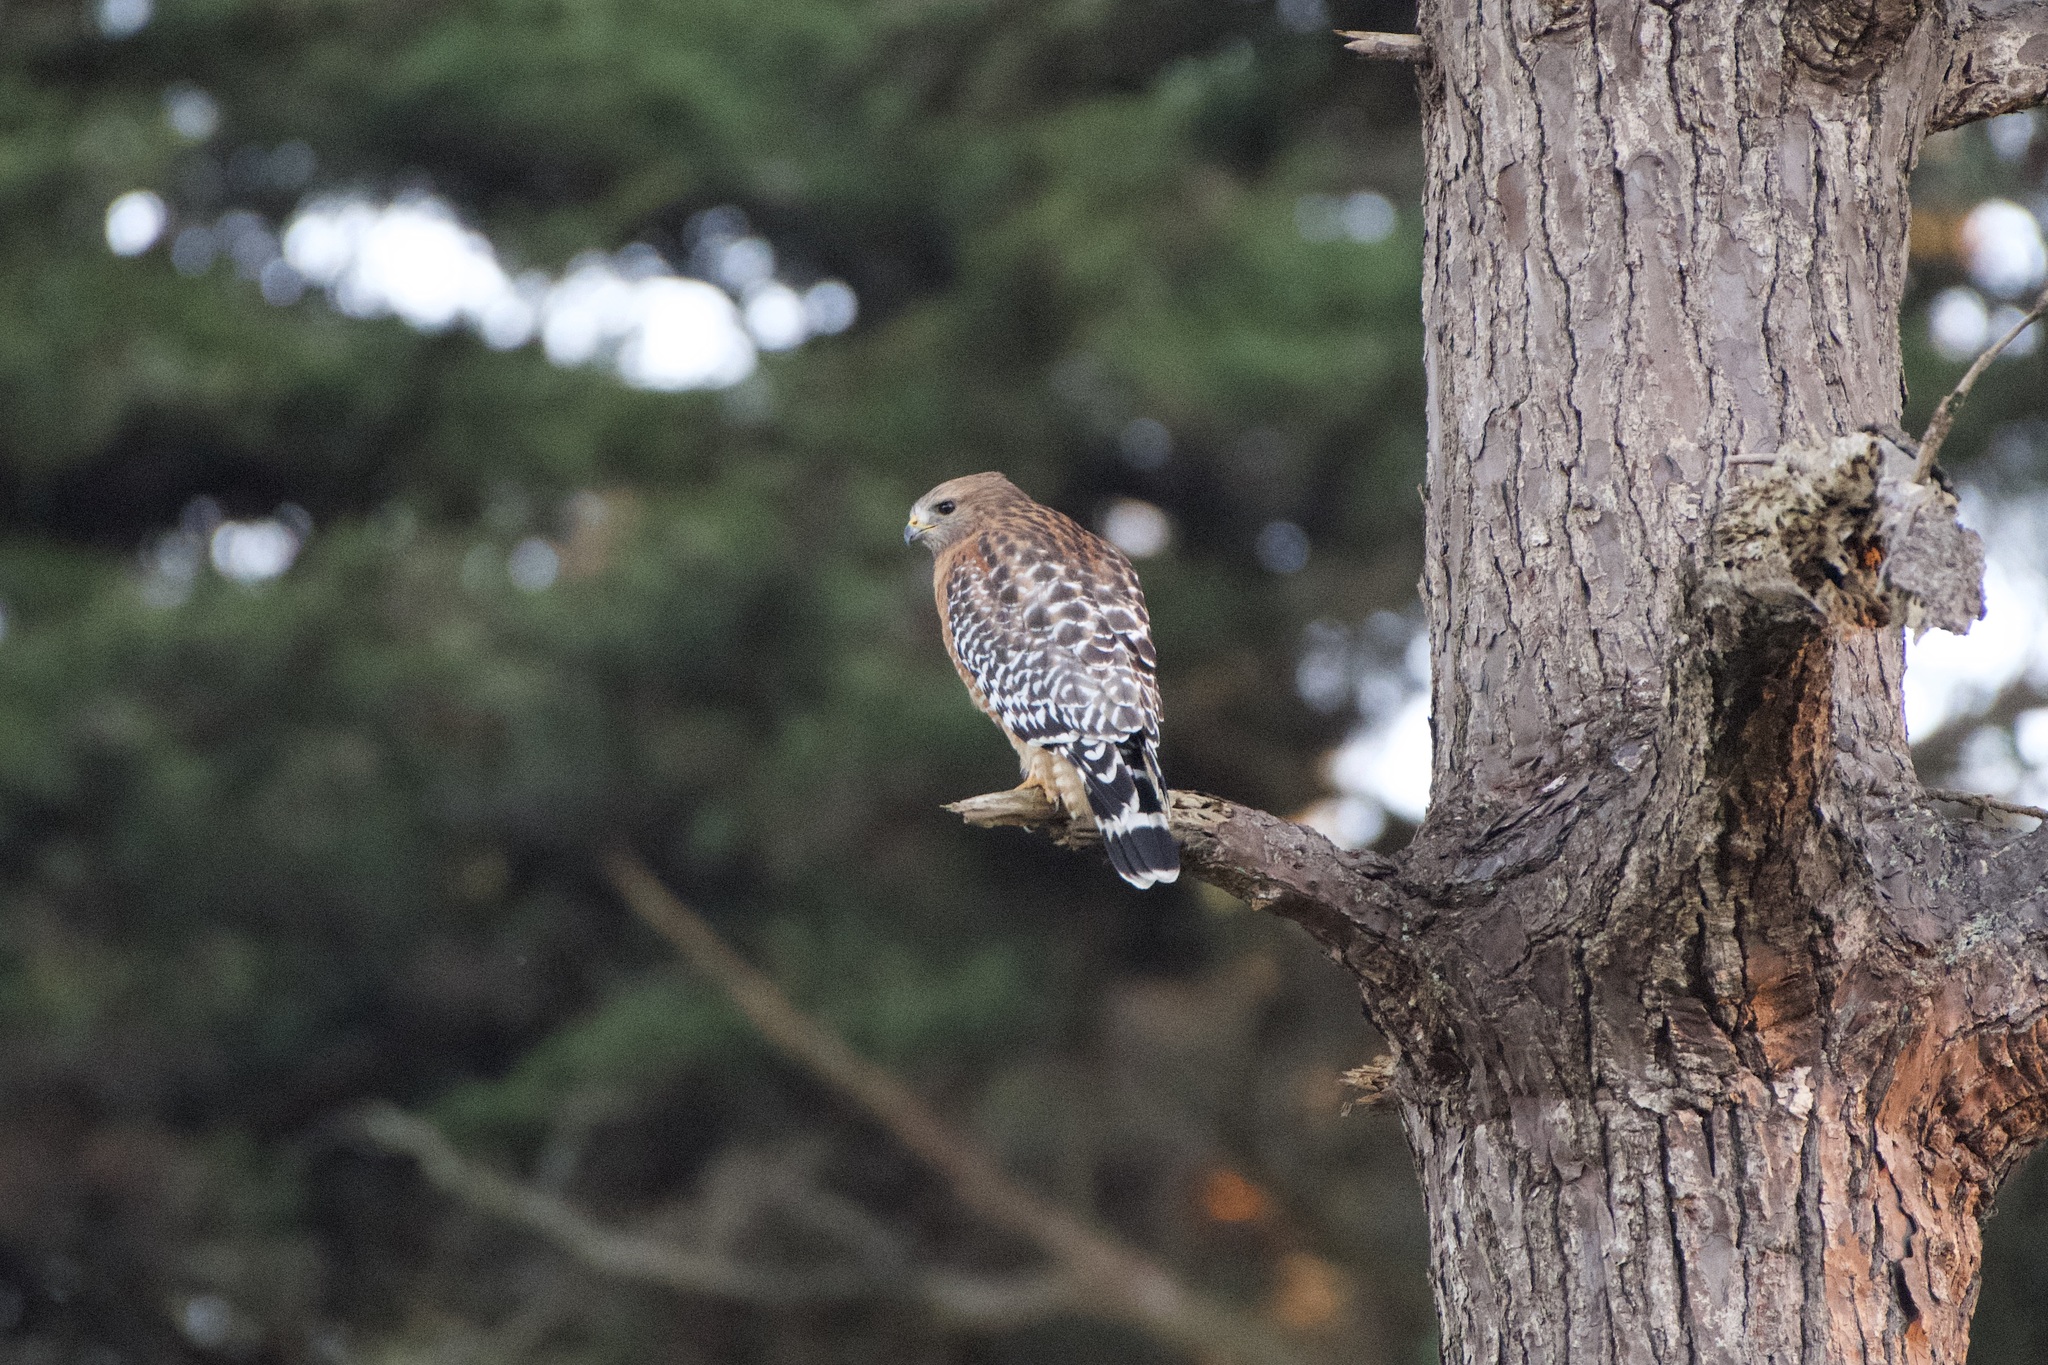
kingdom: Animalia
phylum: Chordata
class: Aves
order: Accipitriformes
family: Accipitridae
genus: Buteo
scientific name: Buteo lineatus
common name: Red-shouldered hawk
